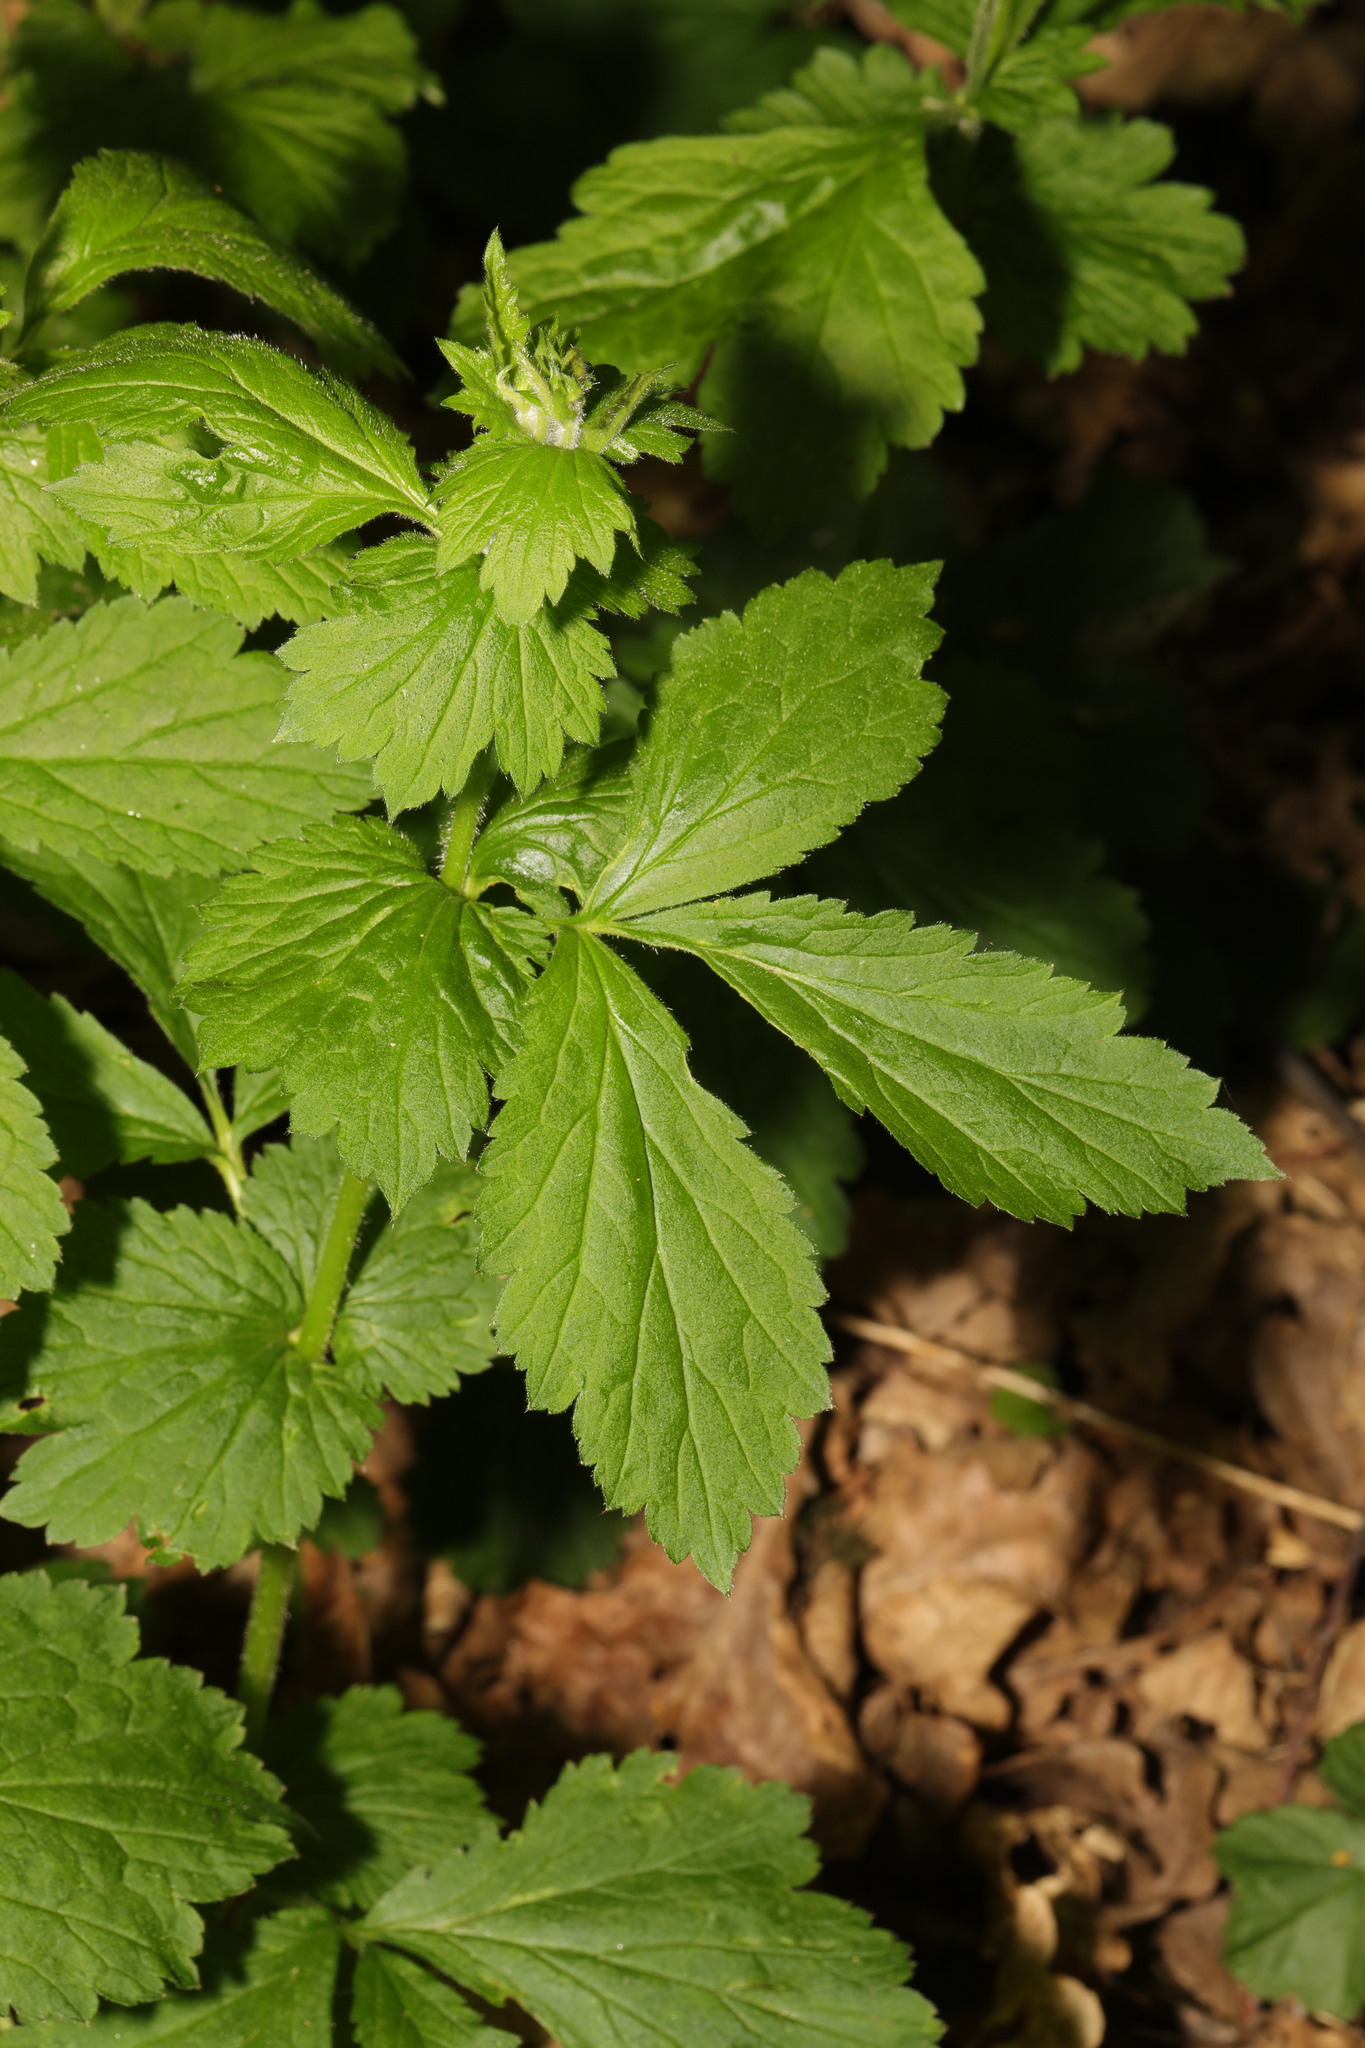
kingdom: Plantae
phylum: Tracheophyta
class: Magnoliopsida
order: Rosales
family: Rosaceae
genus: Geum
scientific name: Geum urbanum
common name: Wood avens
